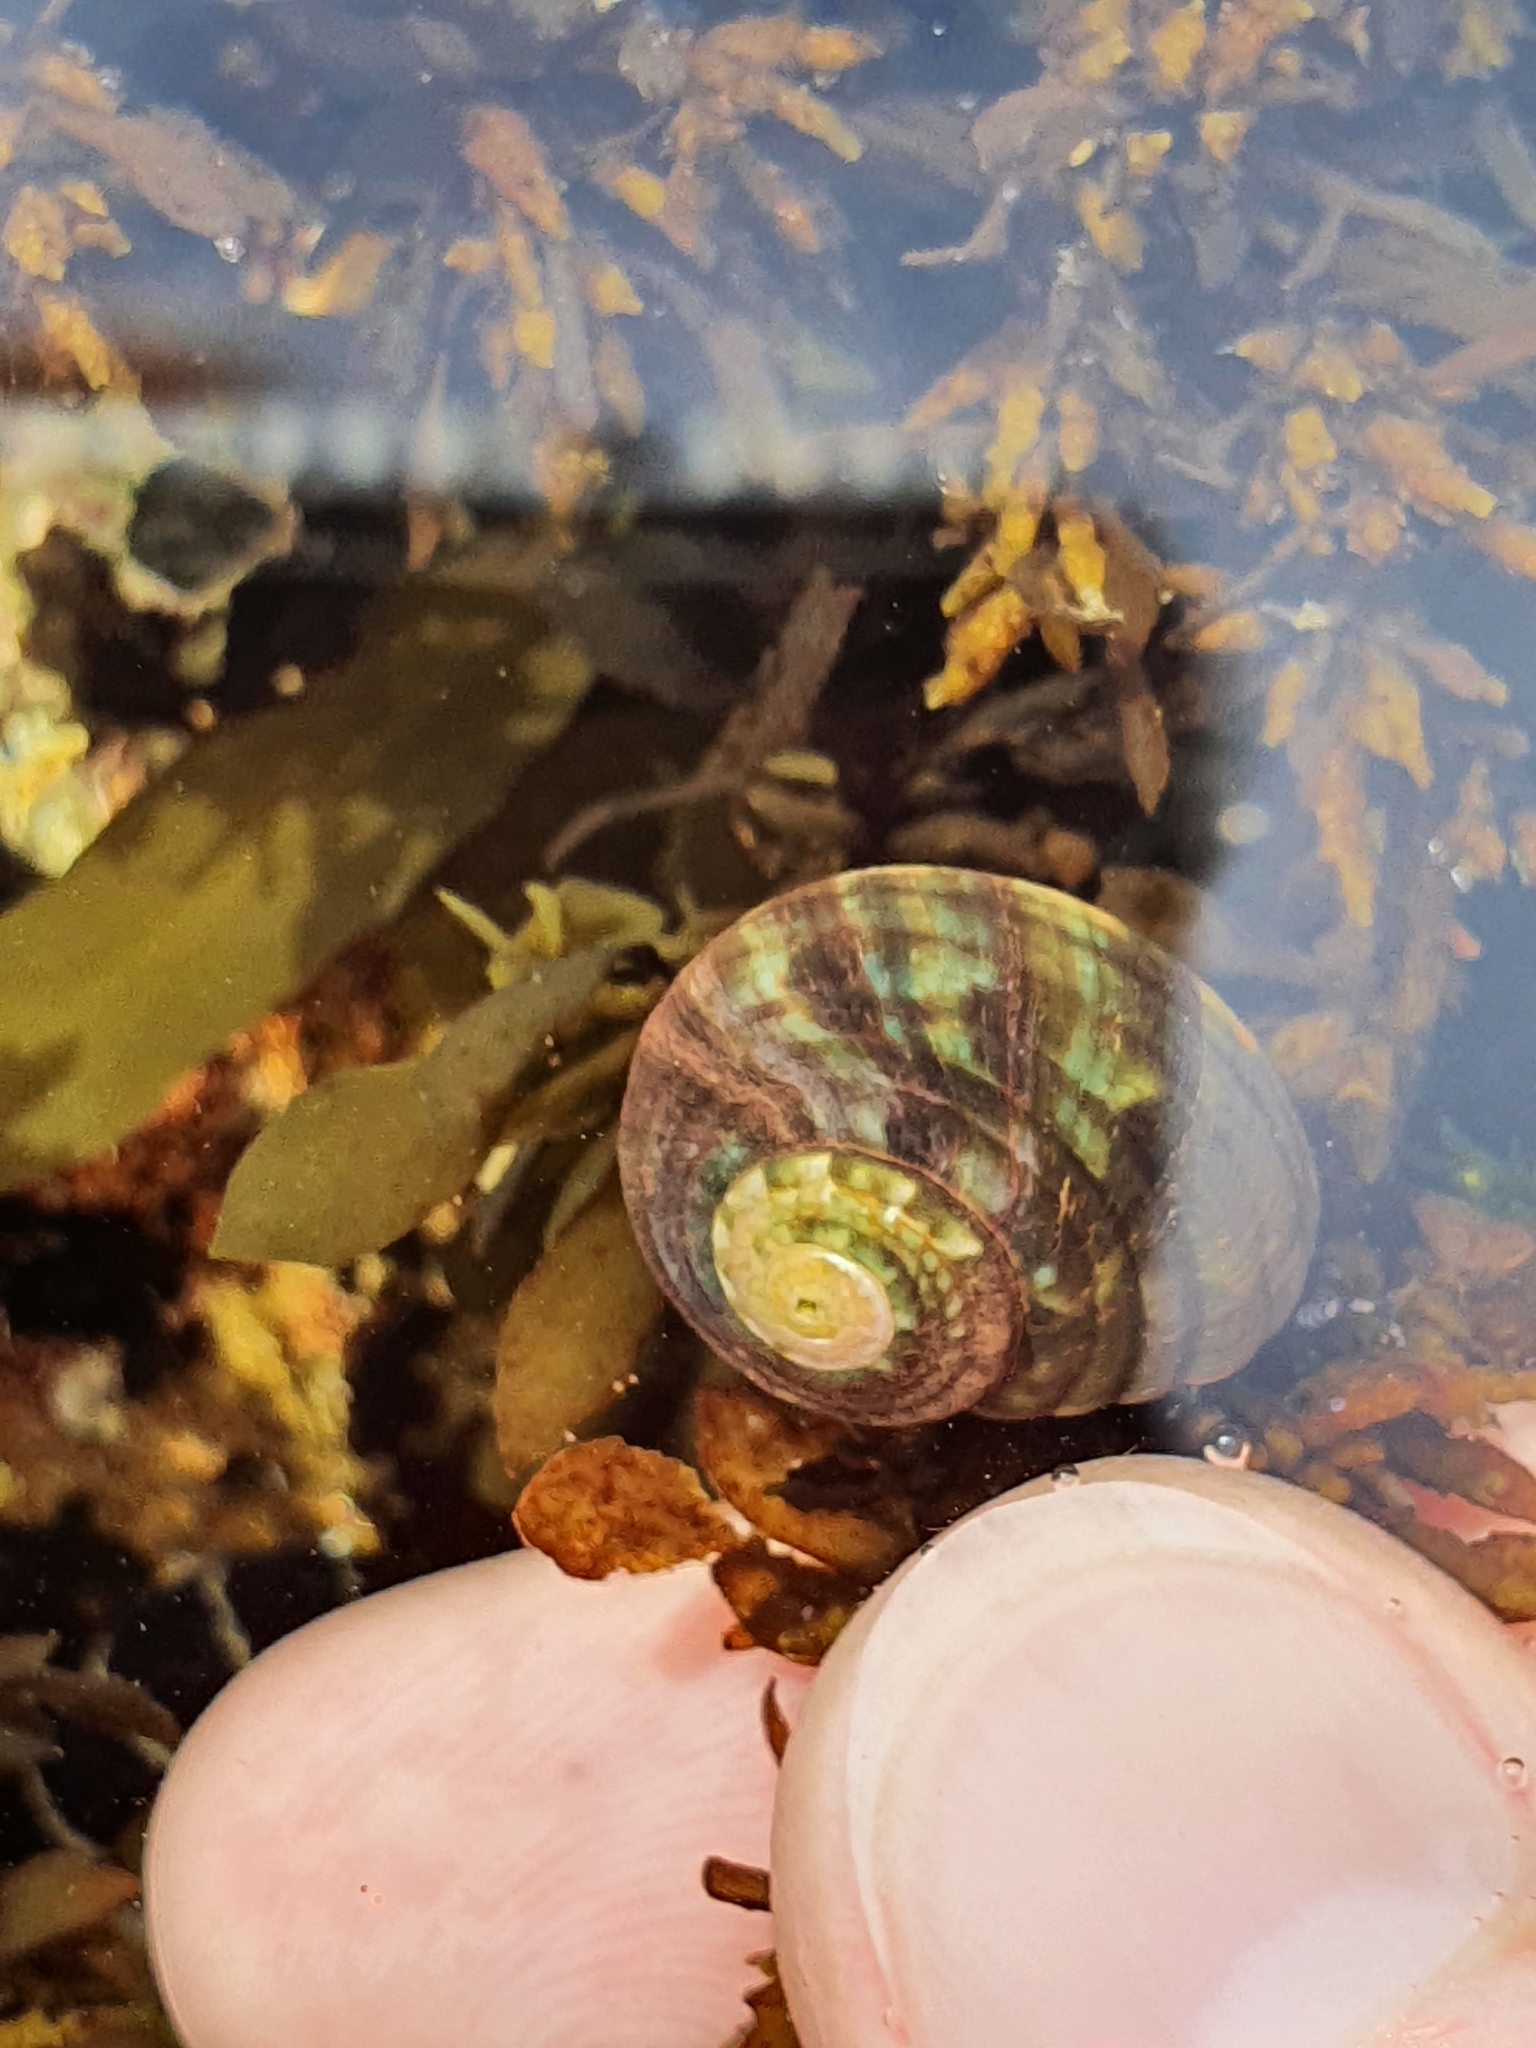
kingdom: Animalia
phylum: Mollusca
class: Gastropoda
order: Trochida
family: Turbinidae
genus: Lunella
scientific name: Lunella undulata
